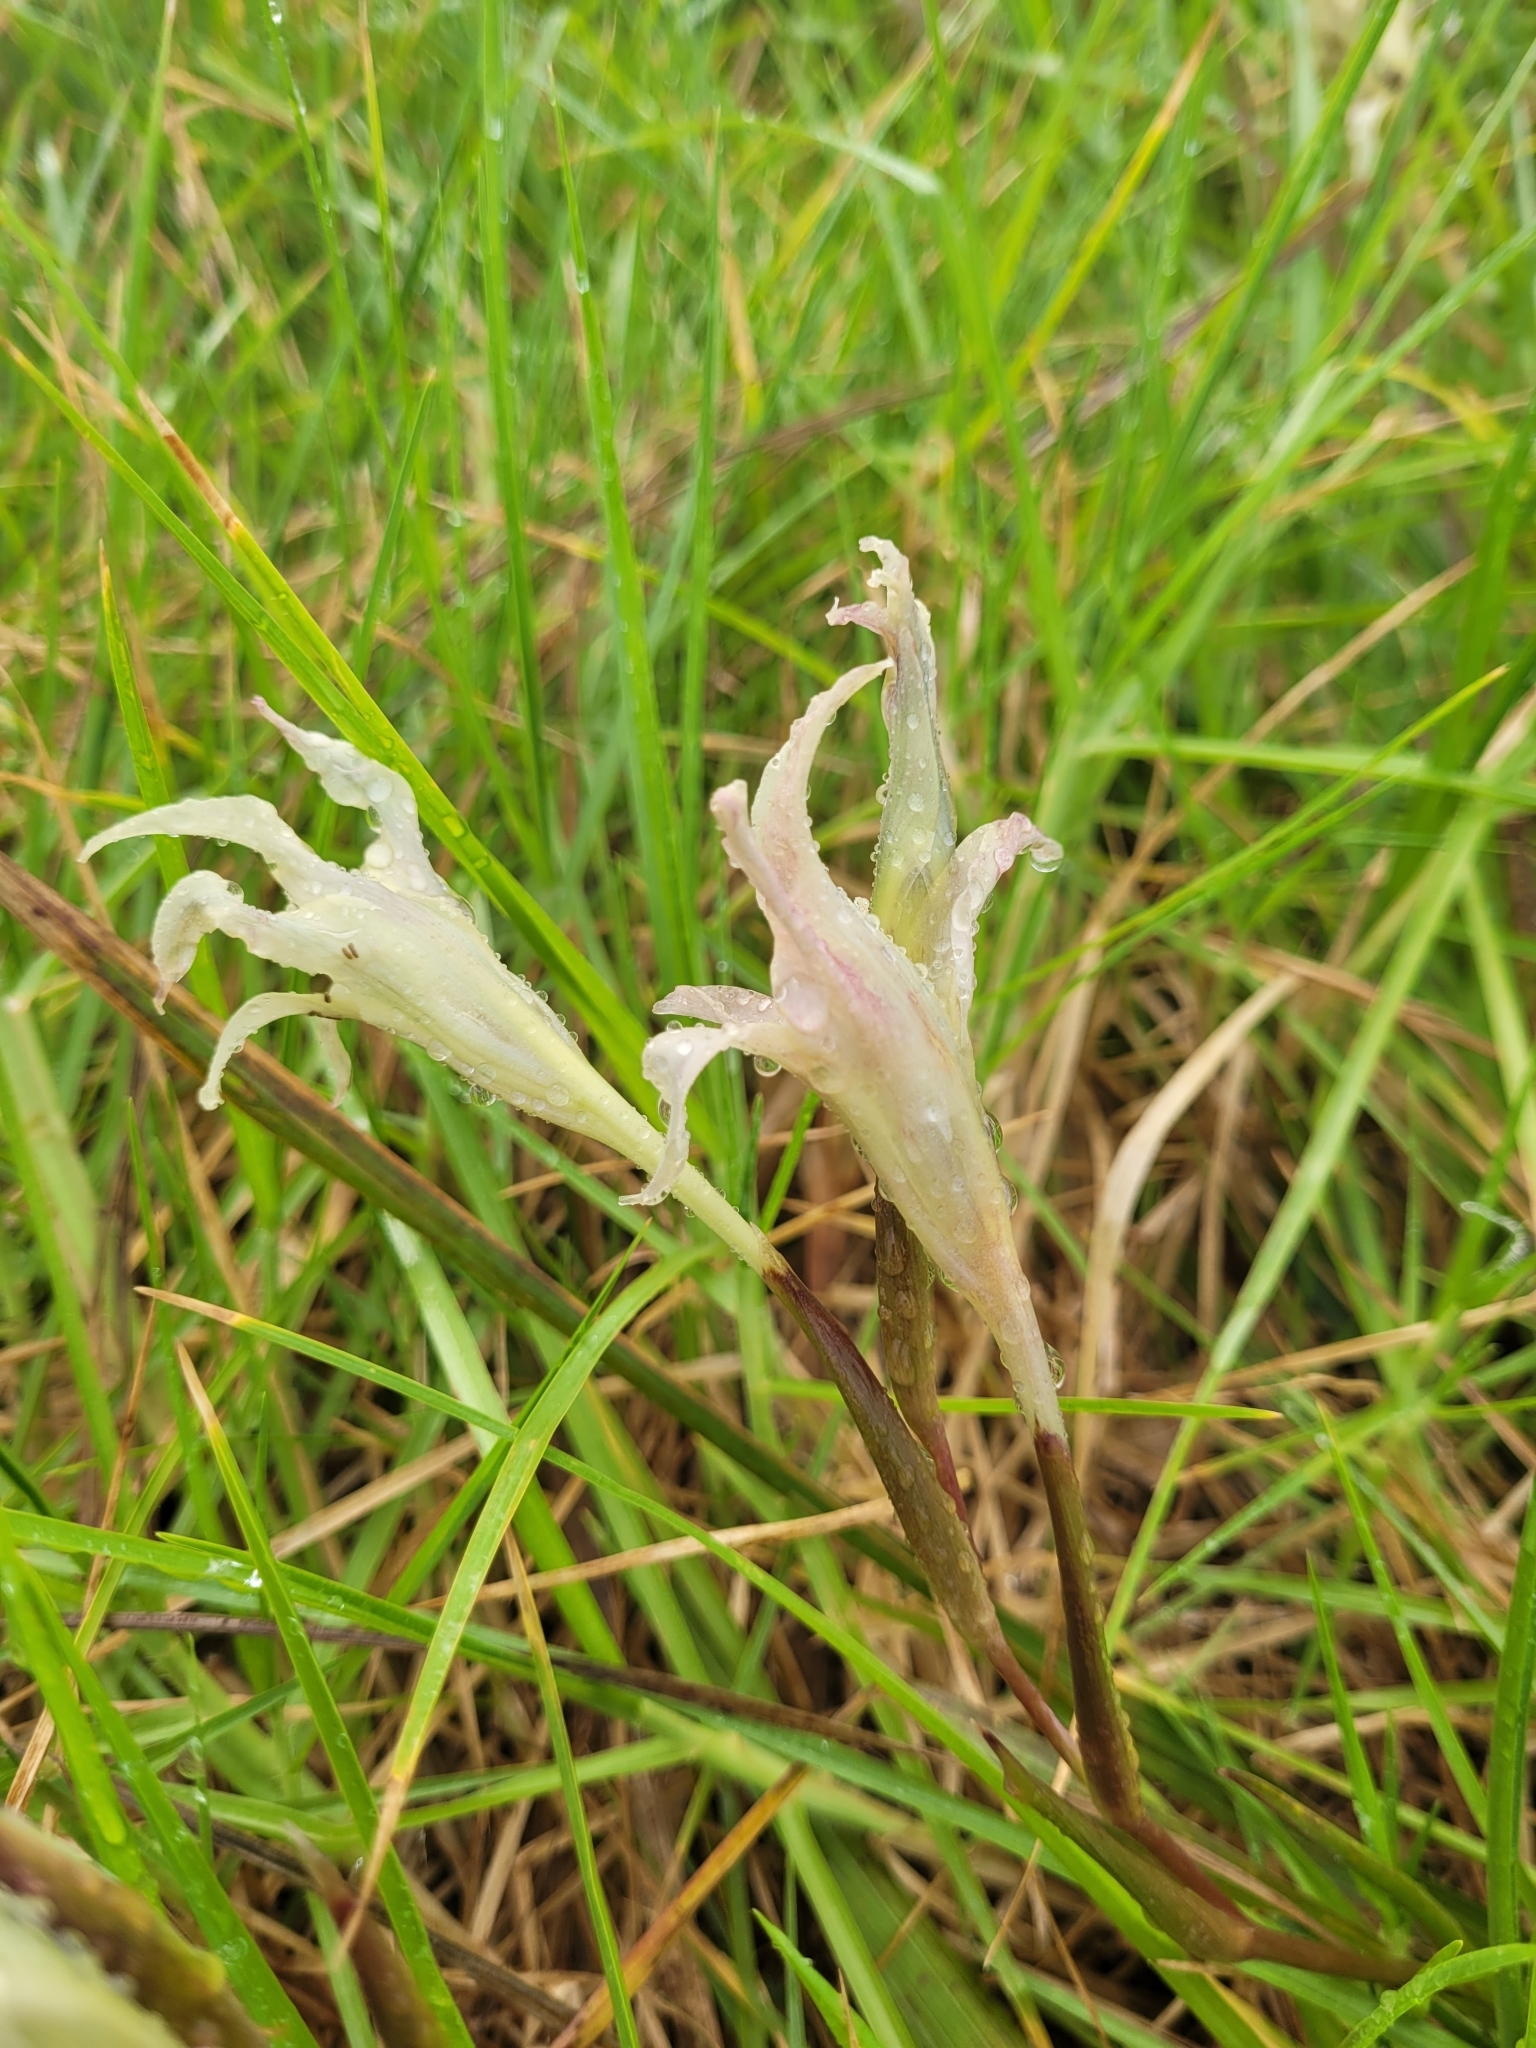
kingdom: Plantae
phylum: Tracheophyta
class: Liliopsida
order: Asparagales
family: Iridaceae
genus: Gladiolus
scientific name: Gladiolus undulatus
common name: Large painted-lady
